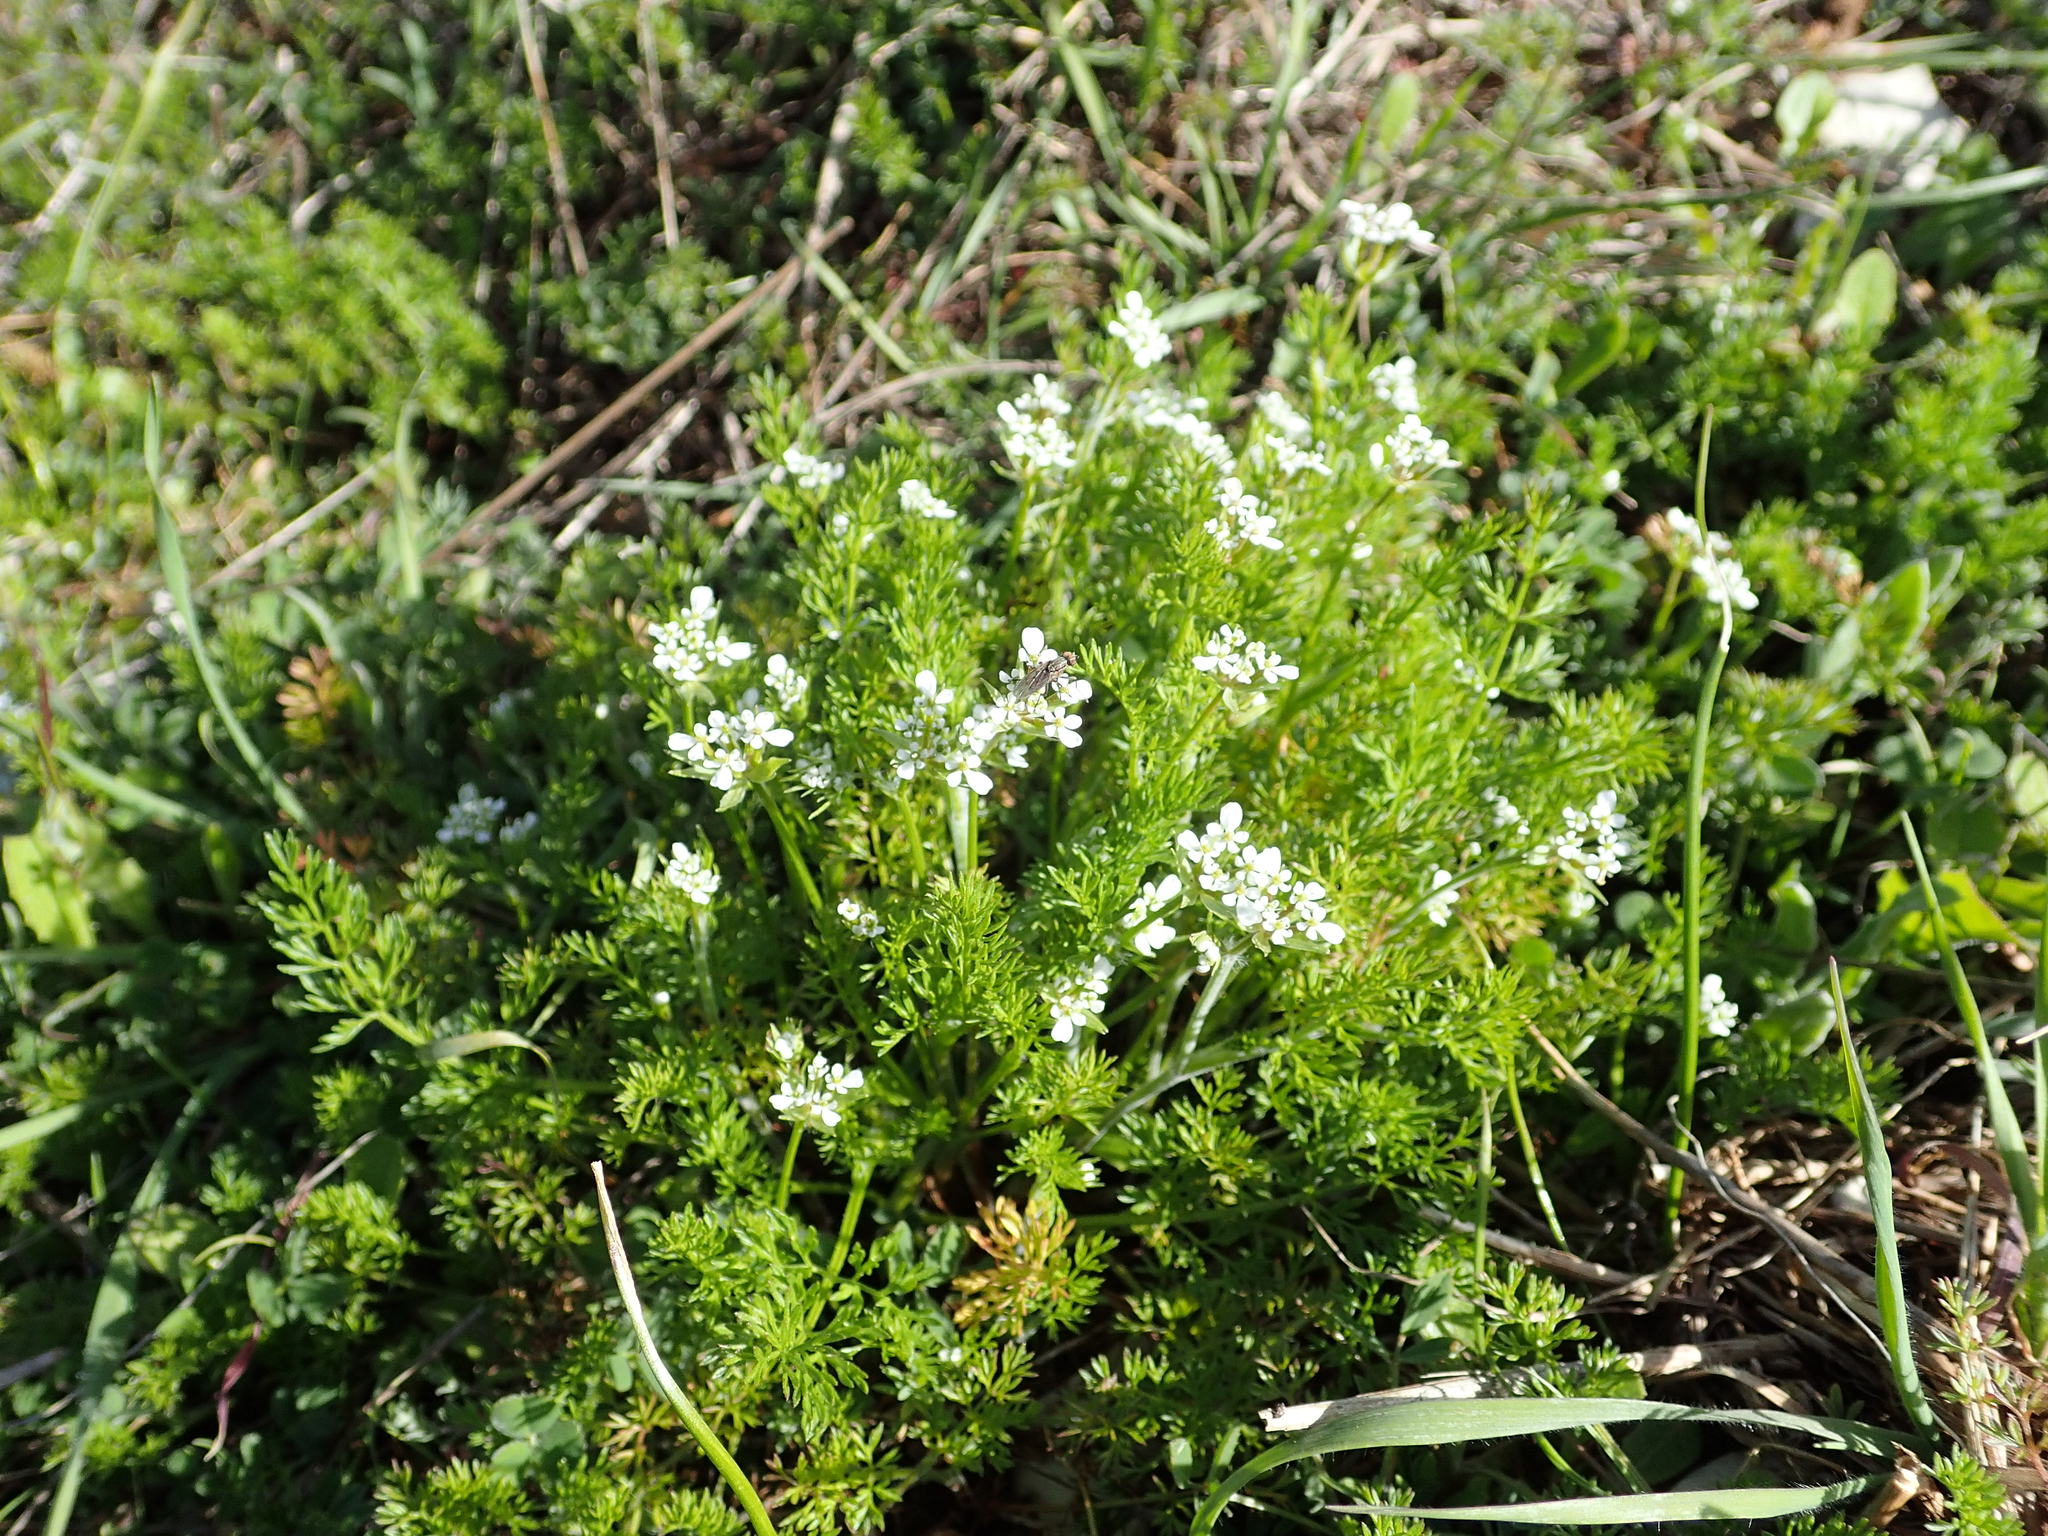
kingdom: Plantae
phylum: Tracheophyta
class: Magnoliopsida
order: Apiales
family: Apiaceae
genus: Scandix
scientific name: Scandix pecten-veneris
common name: Shepherd's-needle
